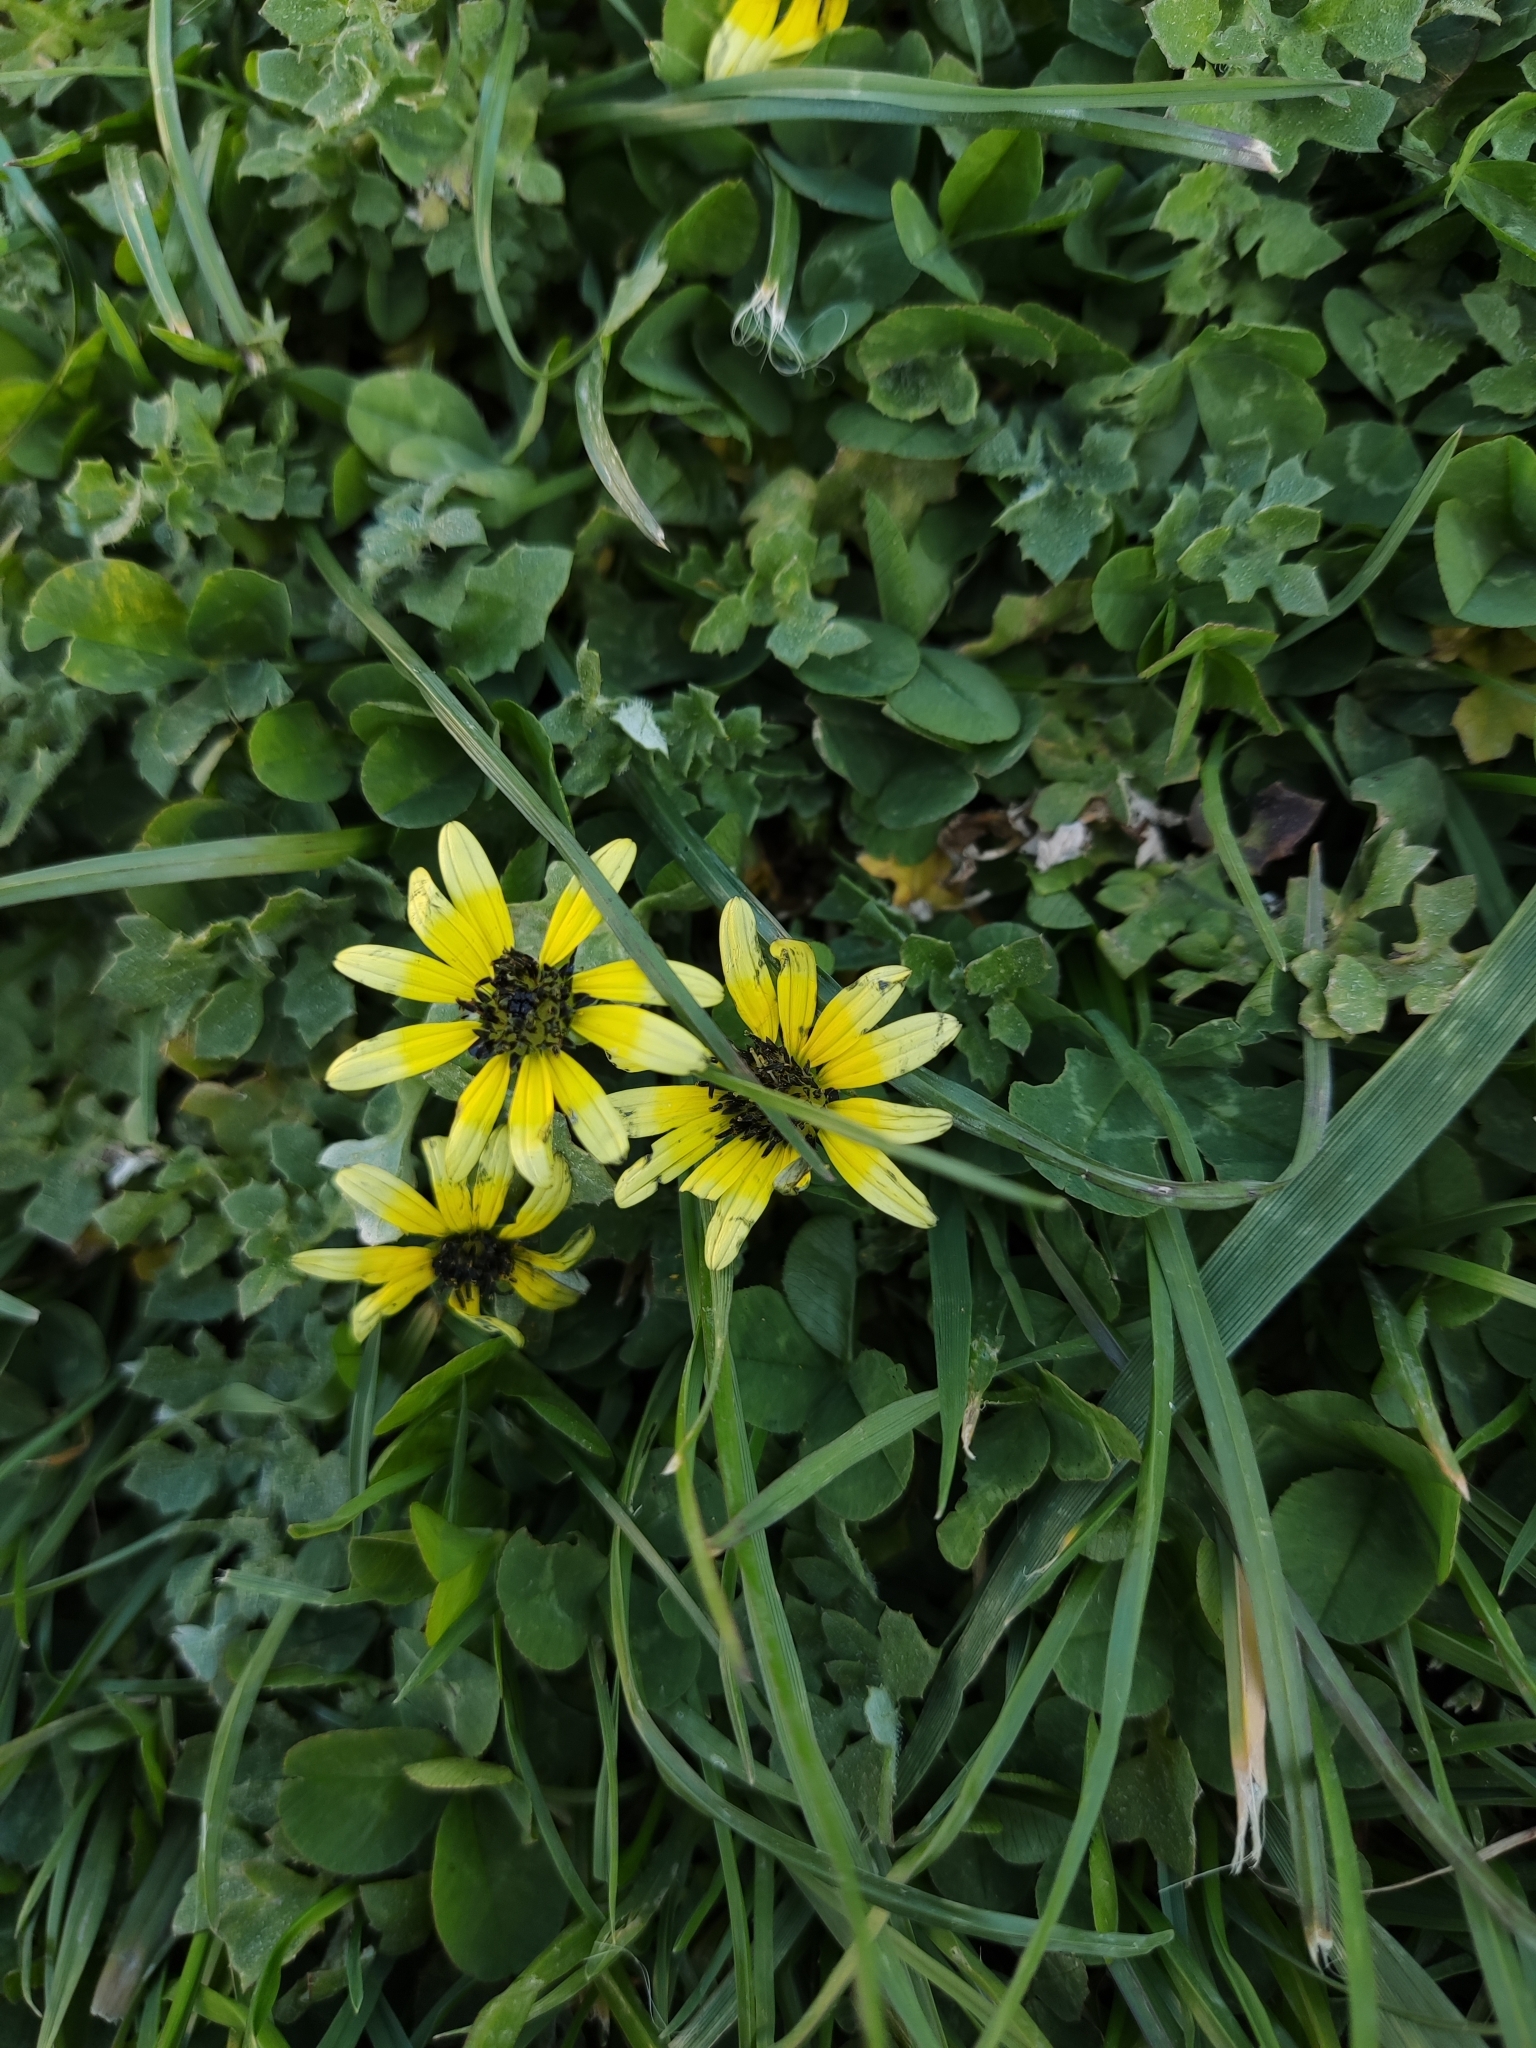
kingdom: Plantae
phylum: Tracheophyta
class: Magnoliopsida
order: Asterales
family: Asteraceae
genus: Arctotheca
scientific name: Arctotheca calendula
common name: Capeweed
